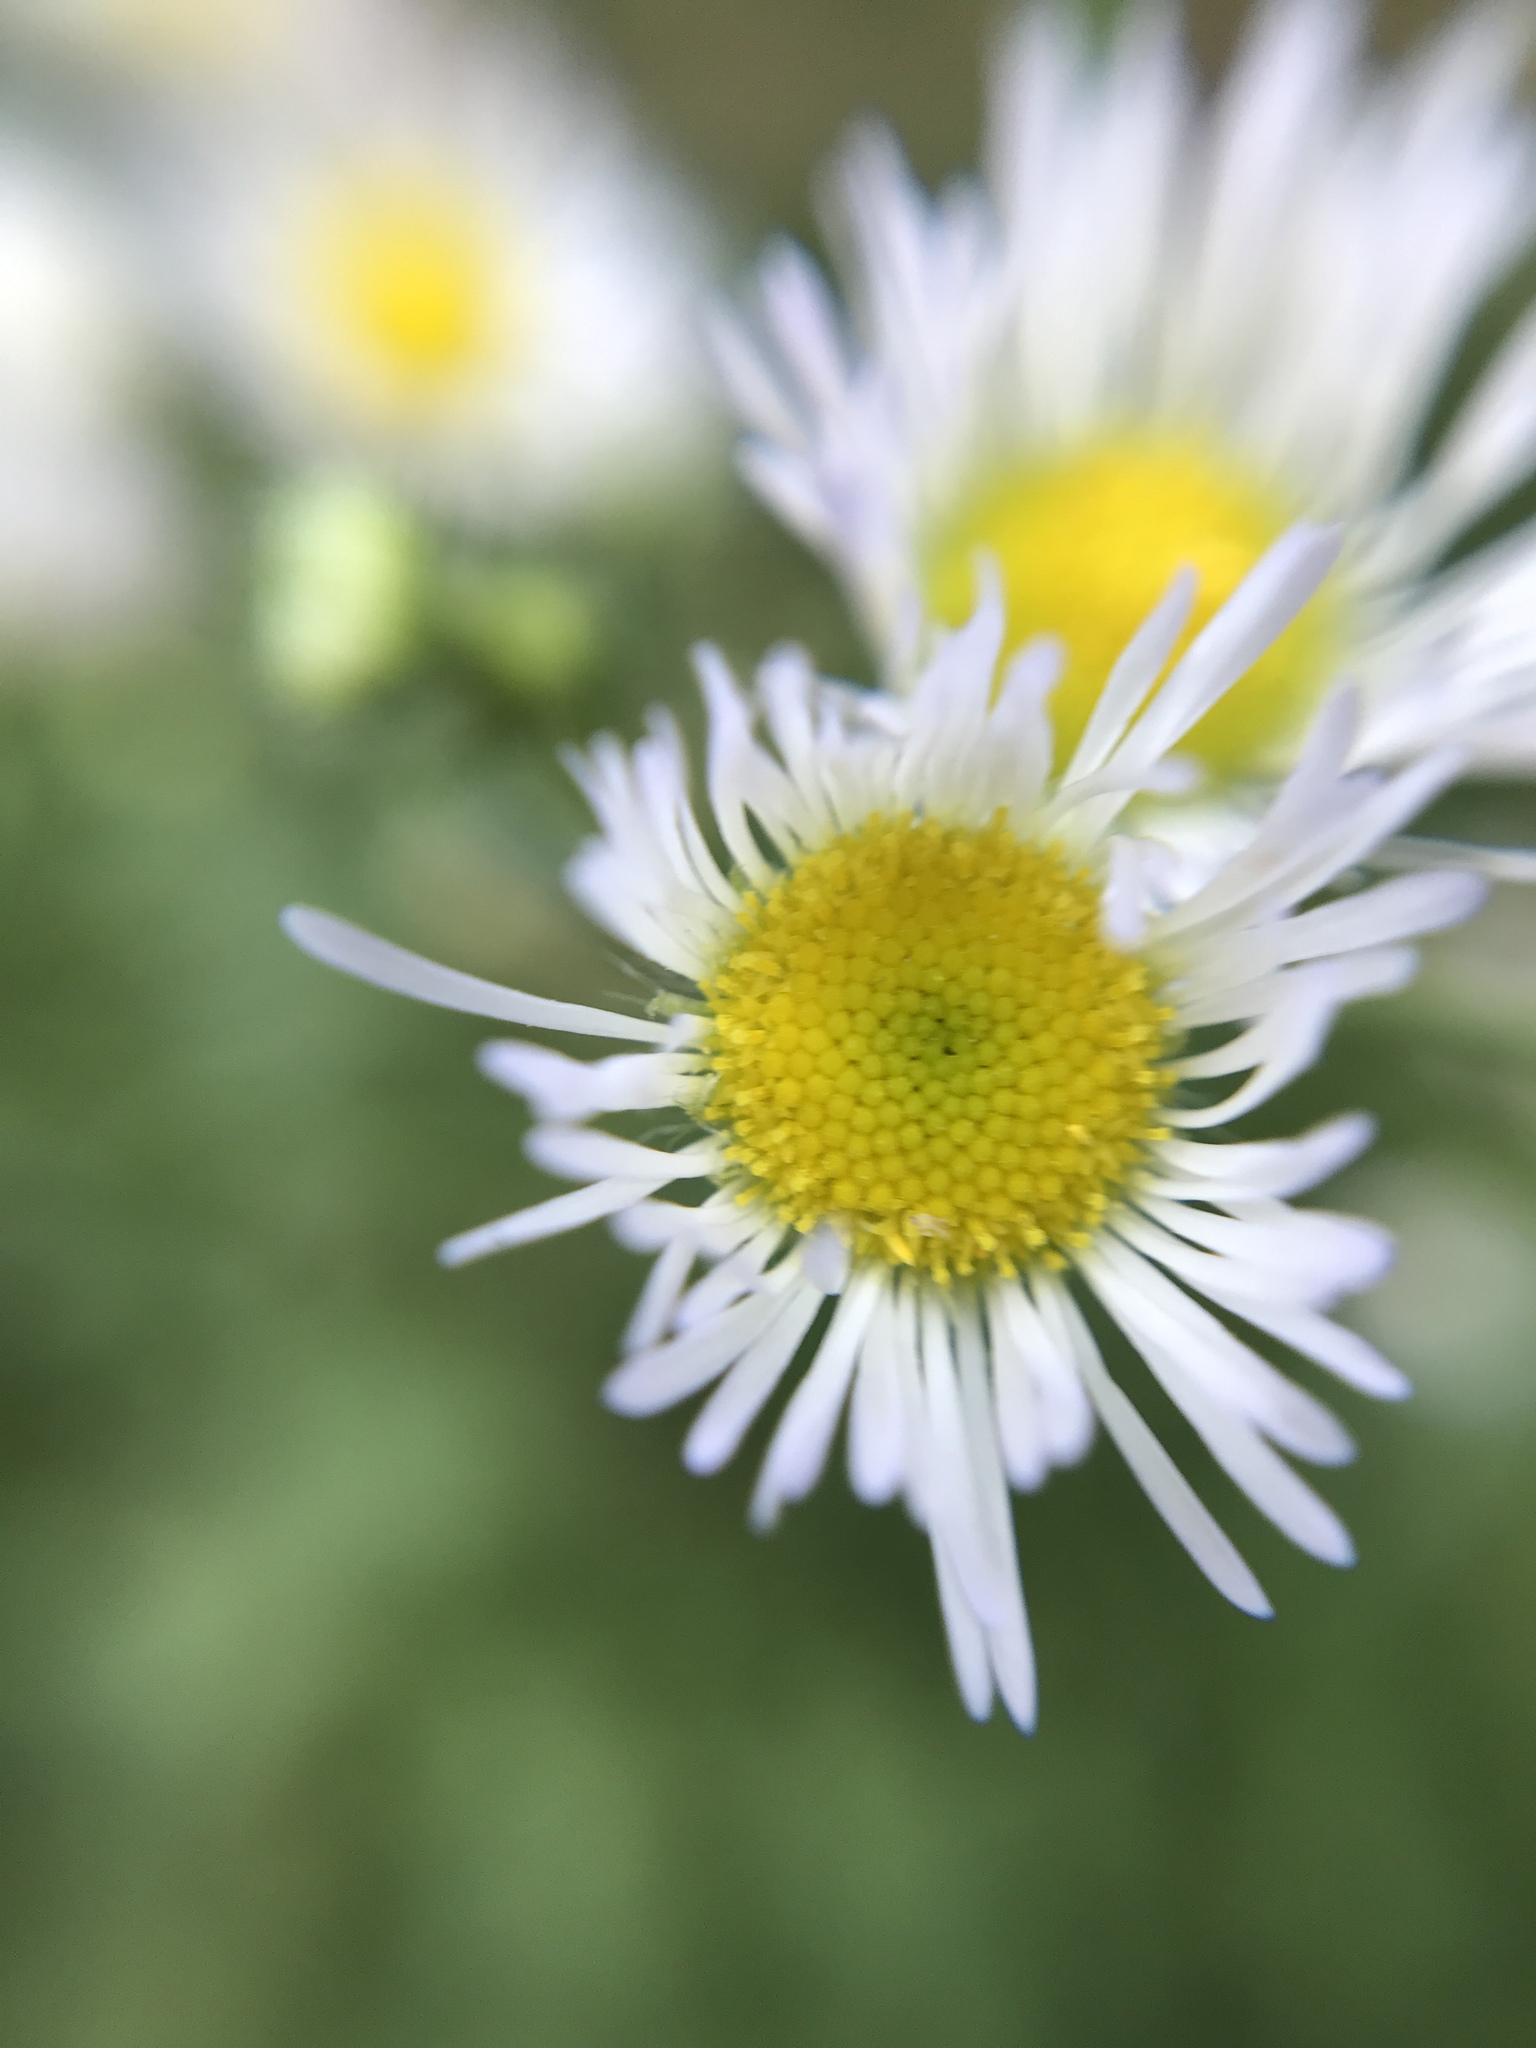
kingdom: Plantae
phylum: Tracheophyta
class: Magnoliopsida
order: Asterales
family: Asteraceae
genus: Erigeron
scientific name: Erigeron annuus
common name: Tall fleabane
